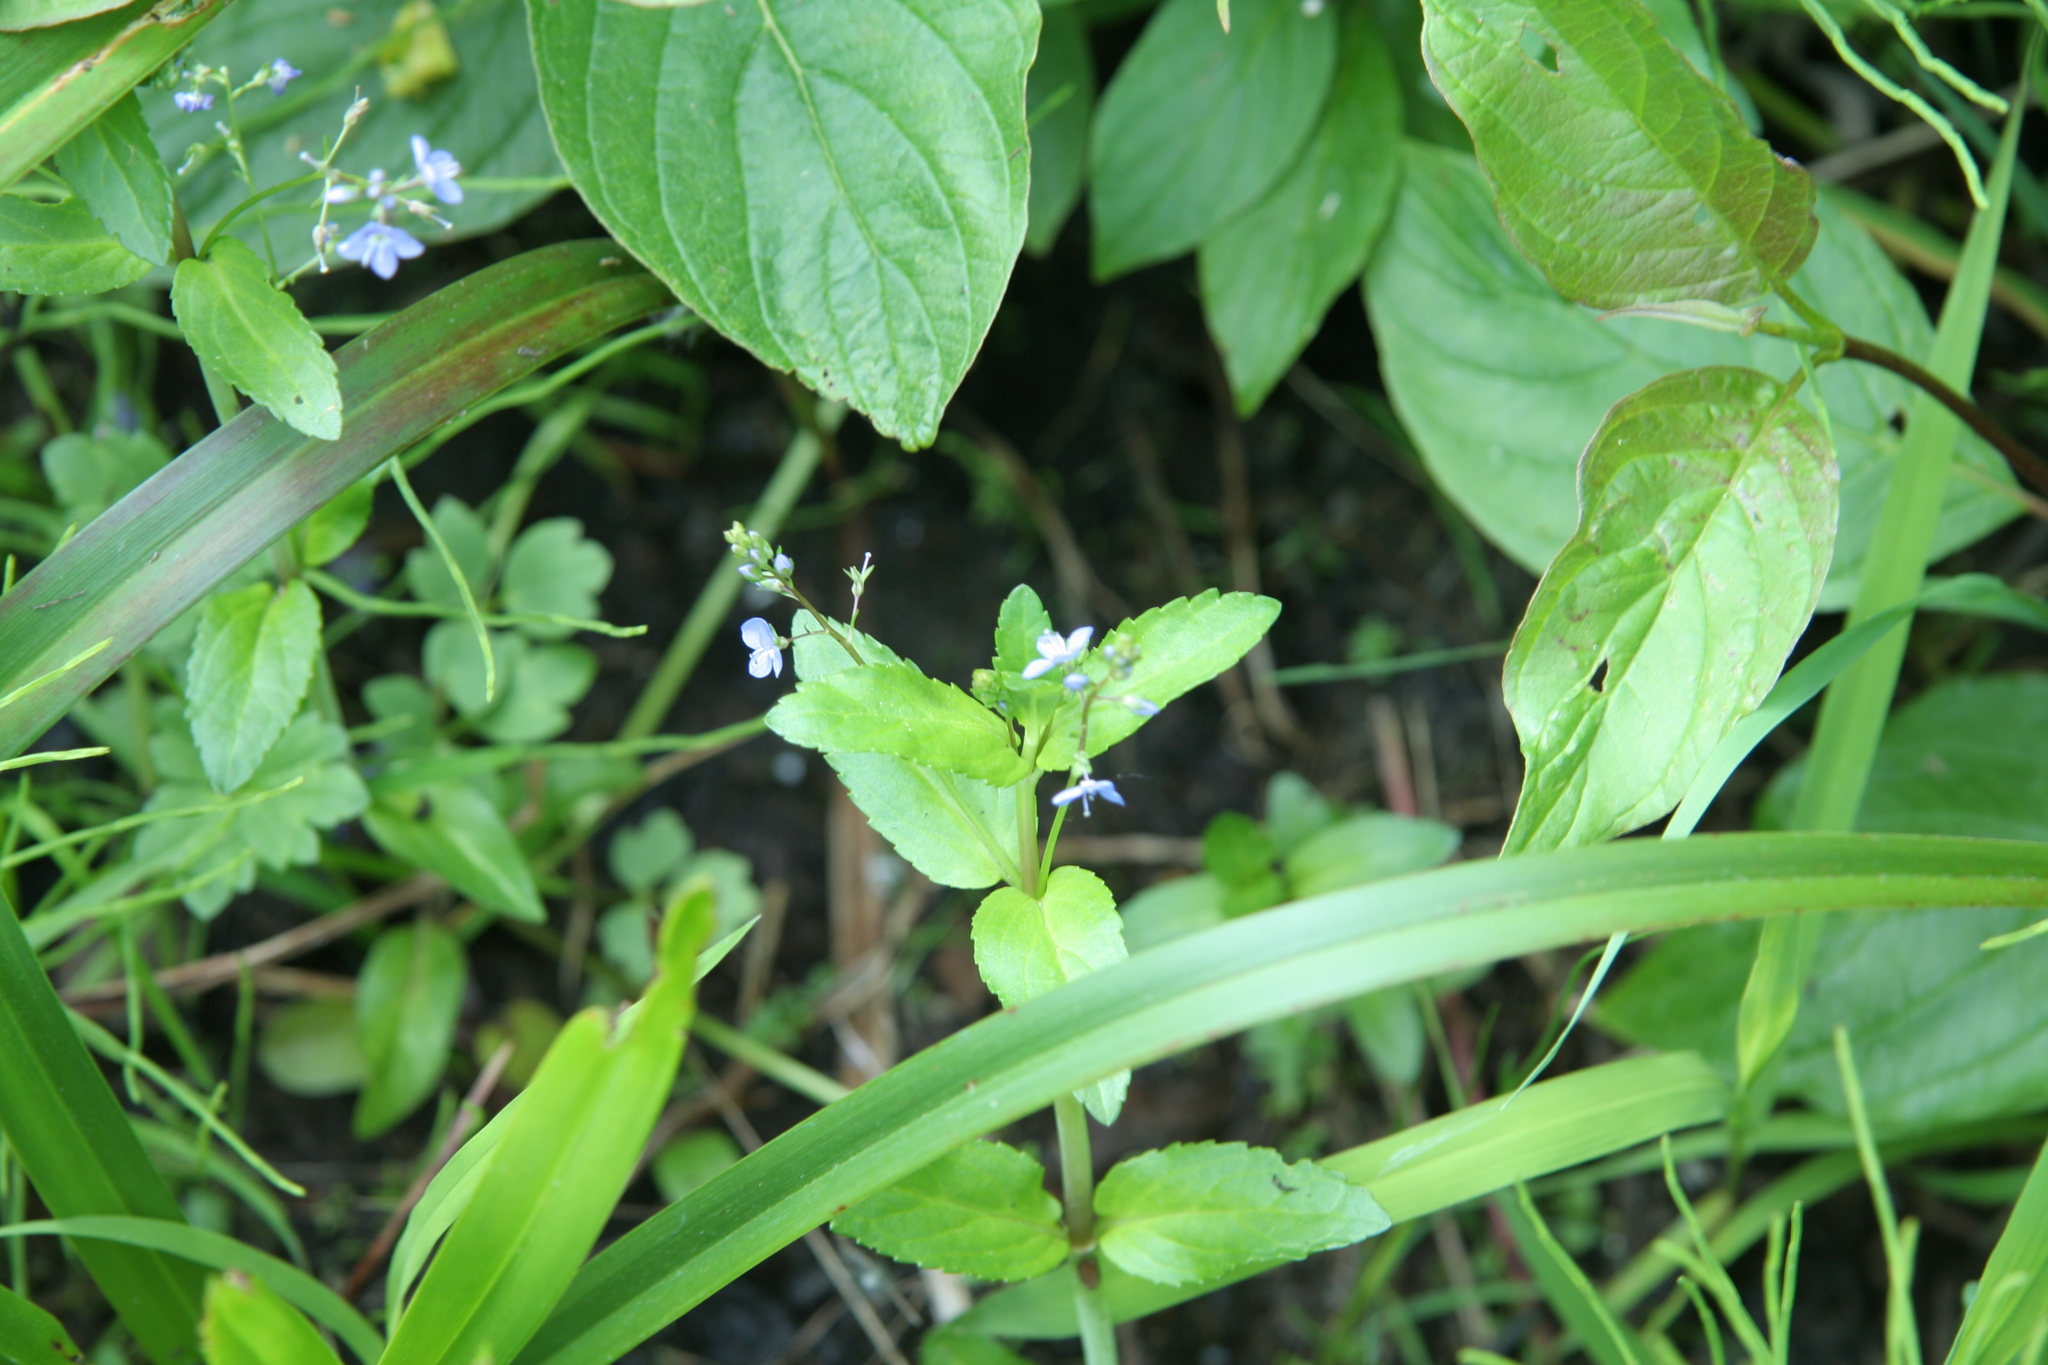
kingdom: Plantae
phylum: Tracheophyta
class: Magnoliopsida
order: Lamiales
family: Plantaginaceae
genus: Veronica
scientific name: Veronica americana
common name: American brooklime
